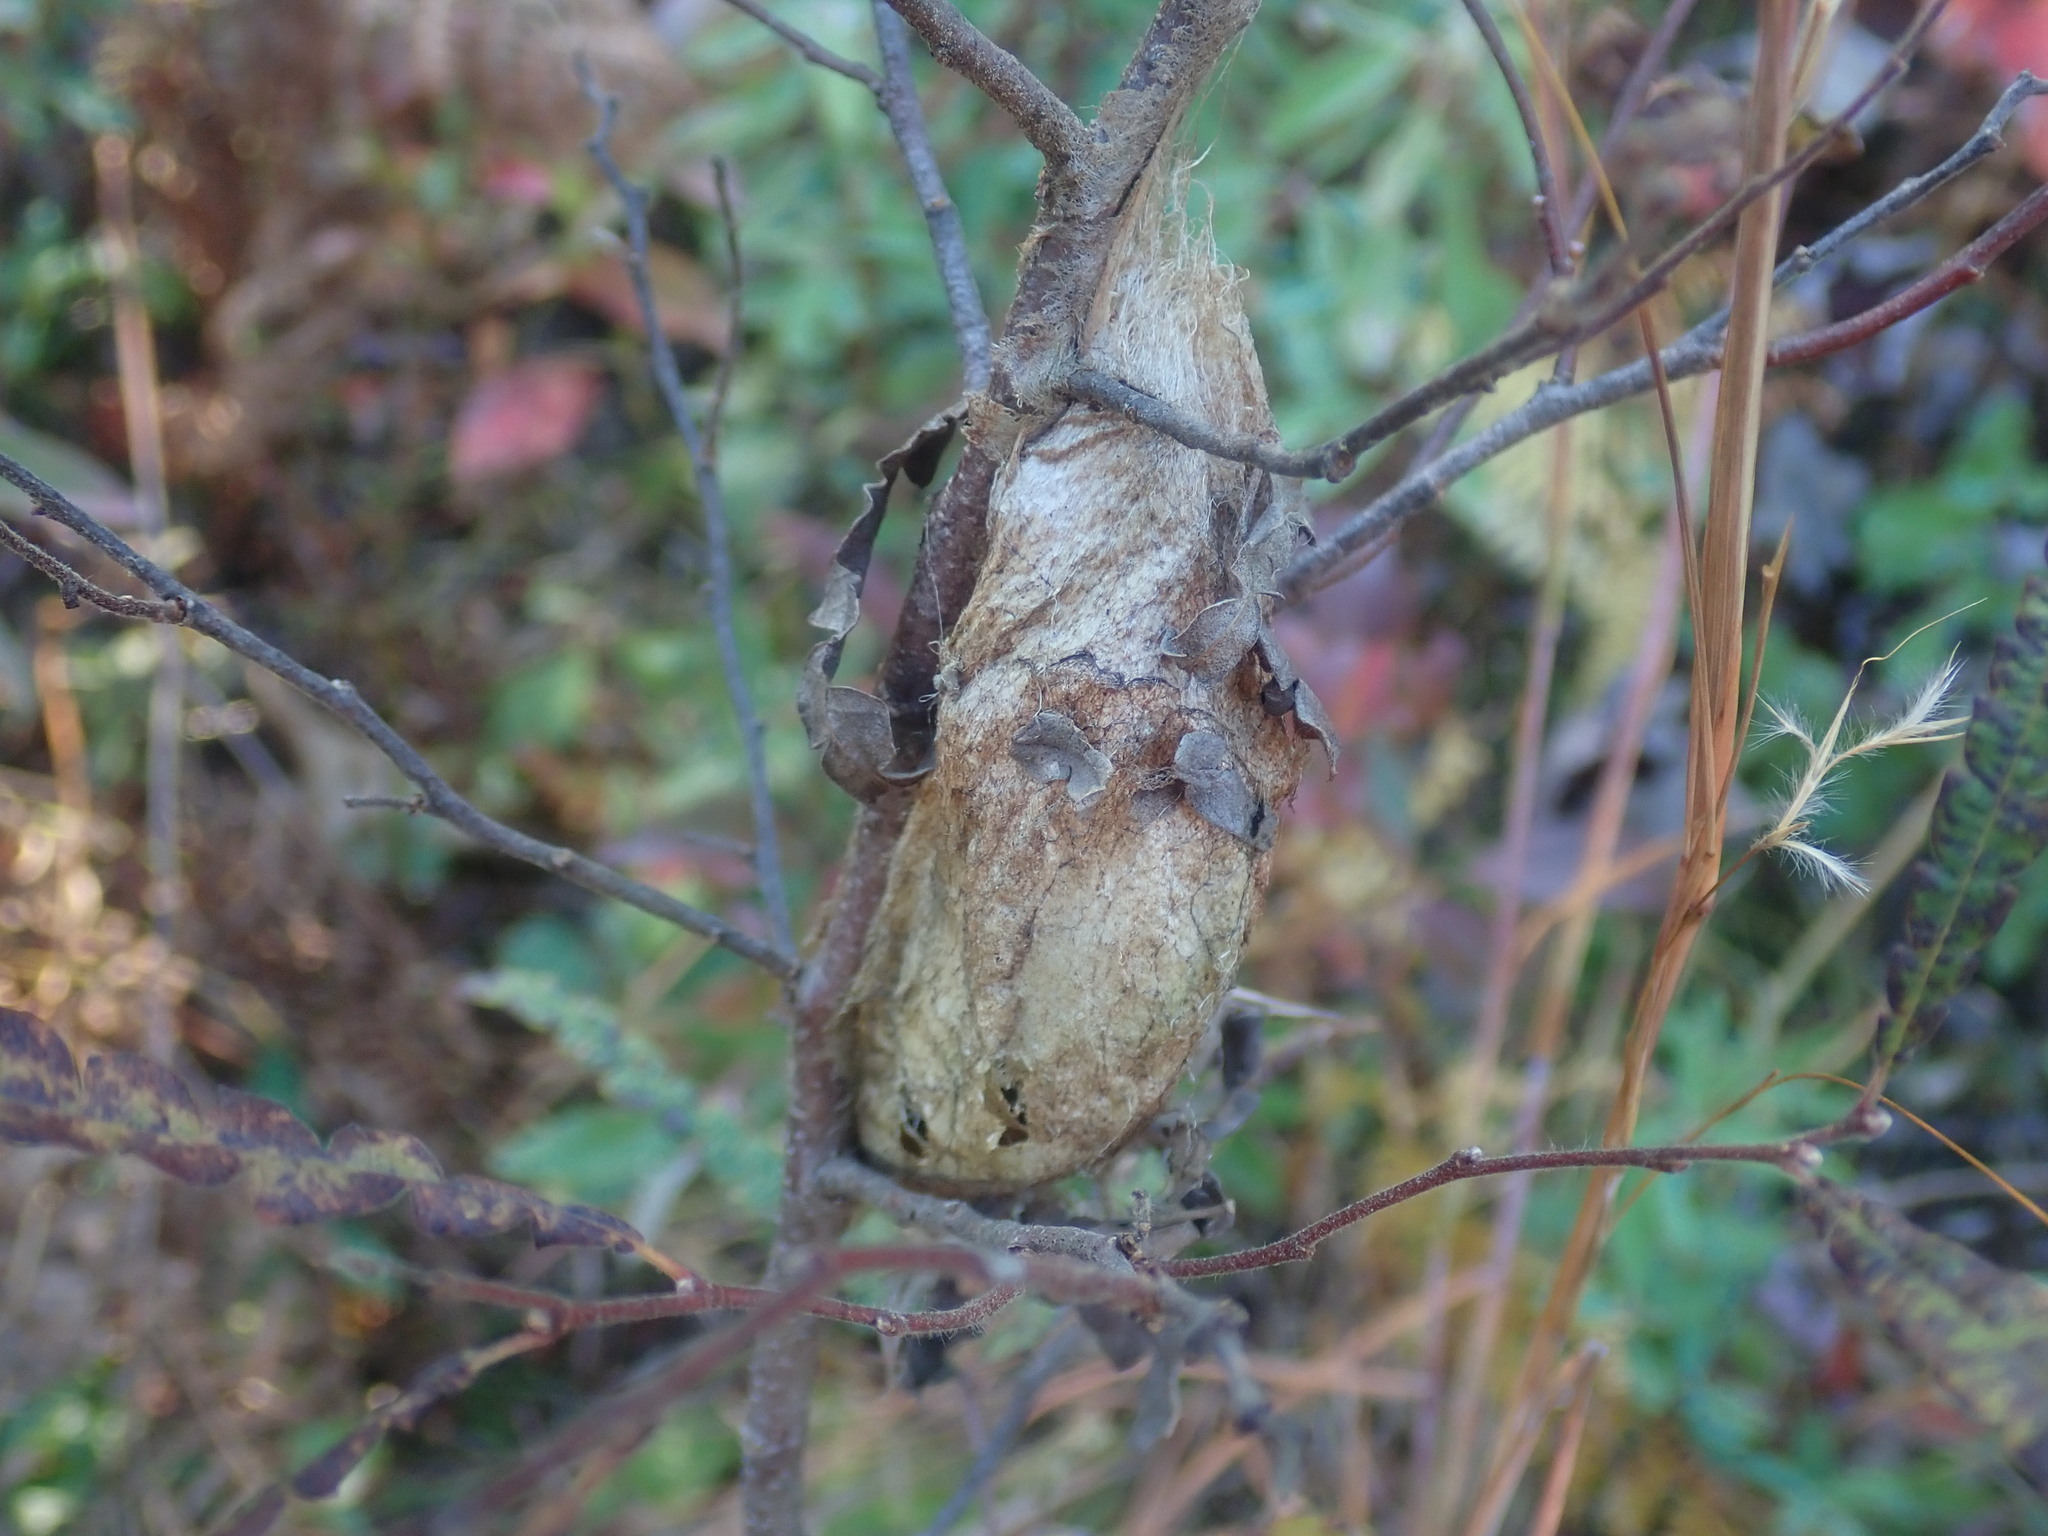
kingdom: Animalia
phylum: Arthropoda
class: Insecta
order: Lepidoptera
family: Saturniidae
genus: Hyalophora
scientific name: Hyalophora cecropia
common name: Cecropia silkmoth
